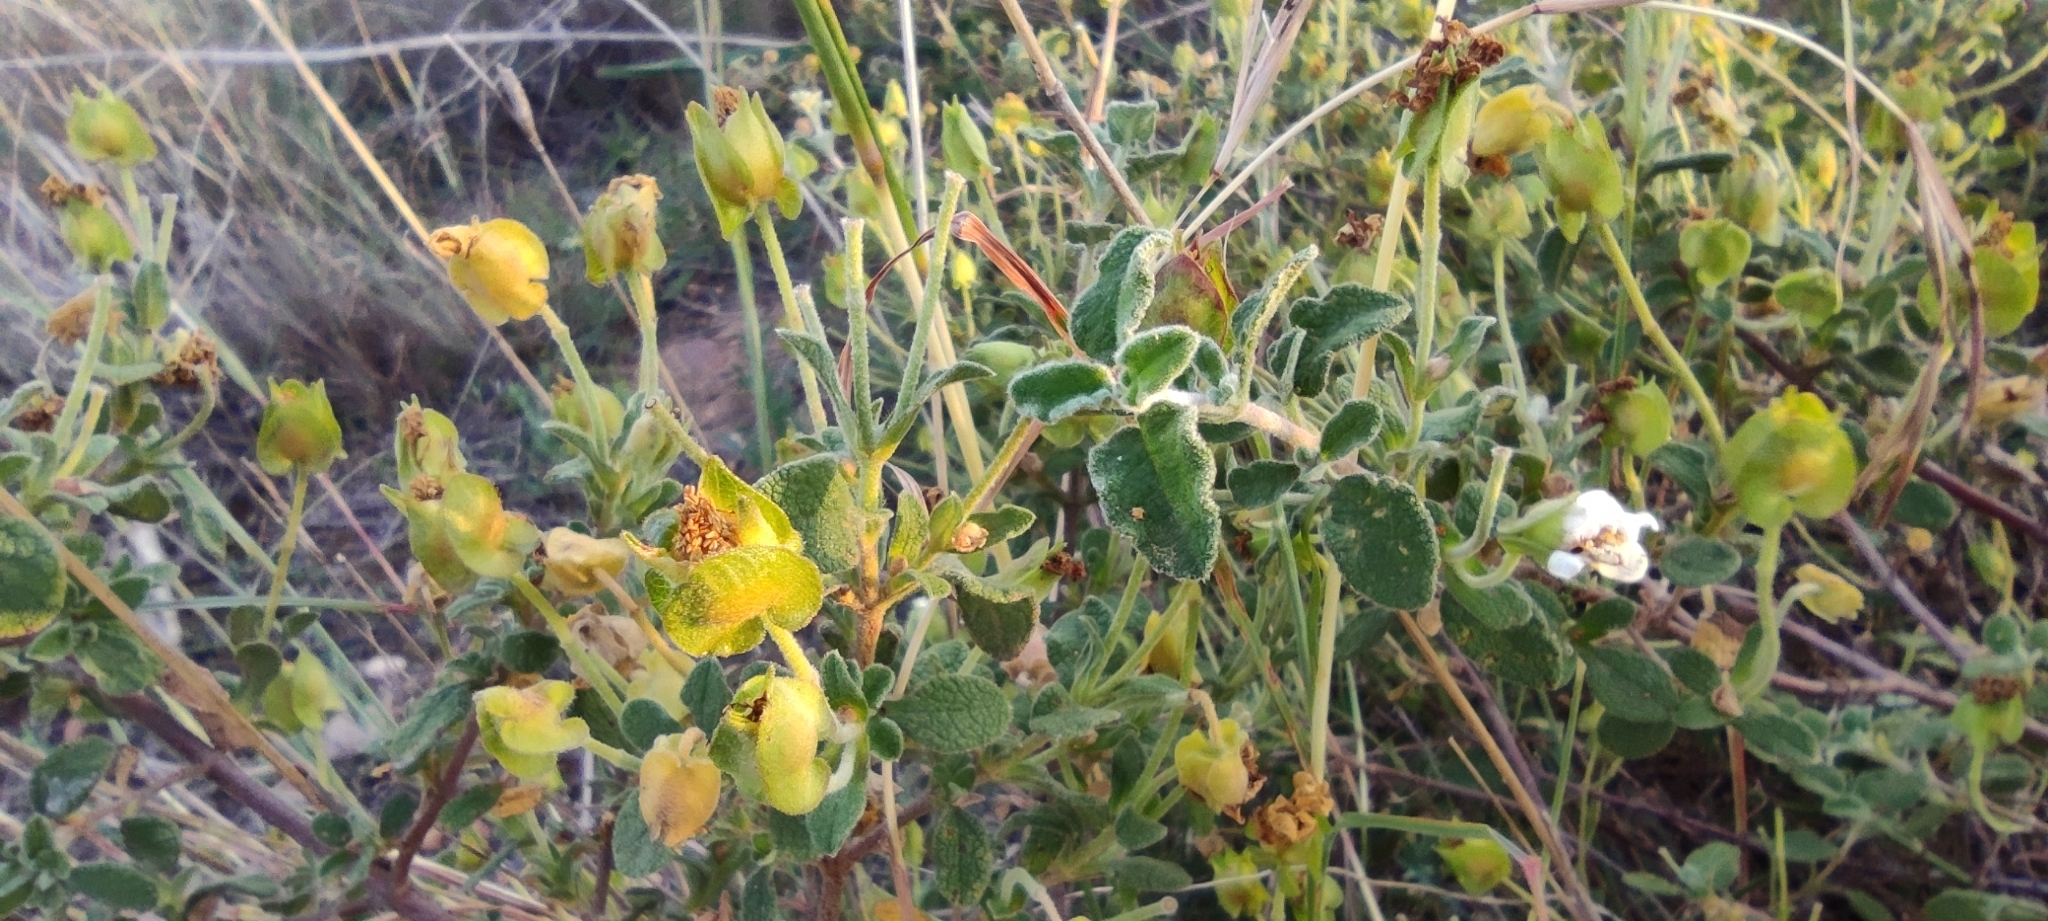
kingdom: Plantae
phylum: Tracheophyta
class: Magnoliopsida
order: Malvales
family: Cistaceae
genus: Cistus
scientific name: Cistus salviifolius
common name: Salvia cistus
